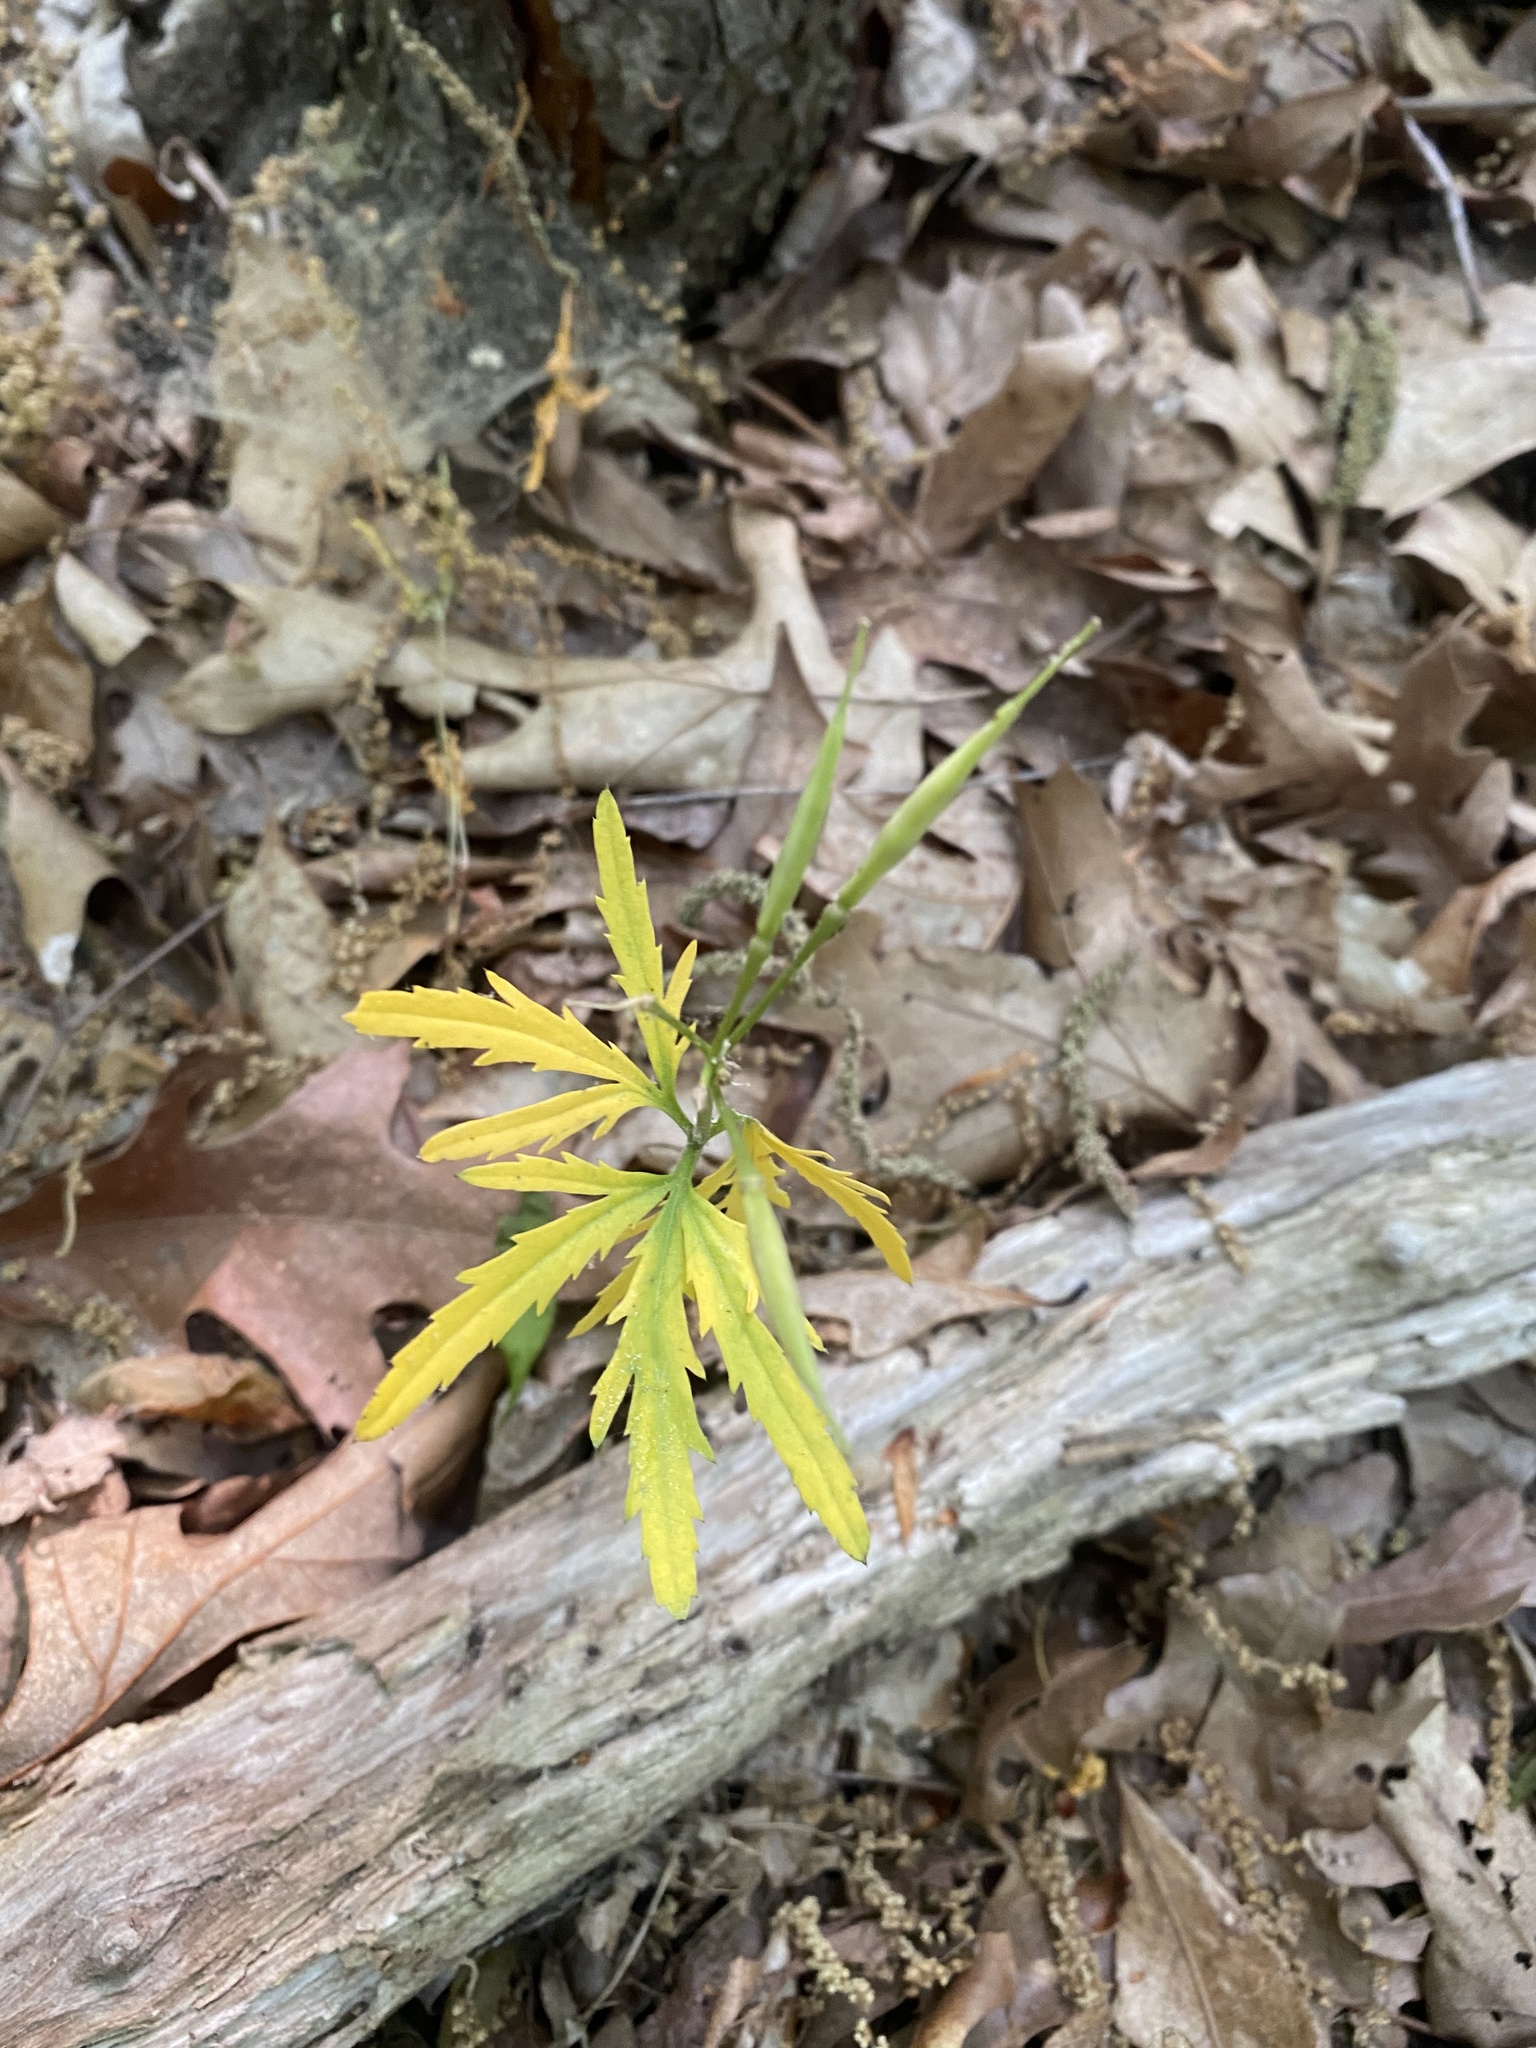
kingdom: Plantae
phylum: Tracheophyta
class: Magnoliopsida
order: Brassicales
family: Brassicaceae
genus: Cardamine
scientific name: Cardamine concatenata
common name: Cut-leaf toothcup
